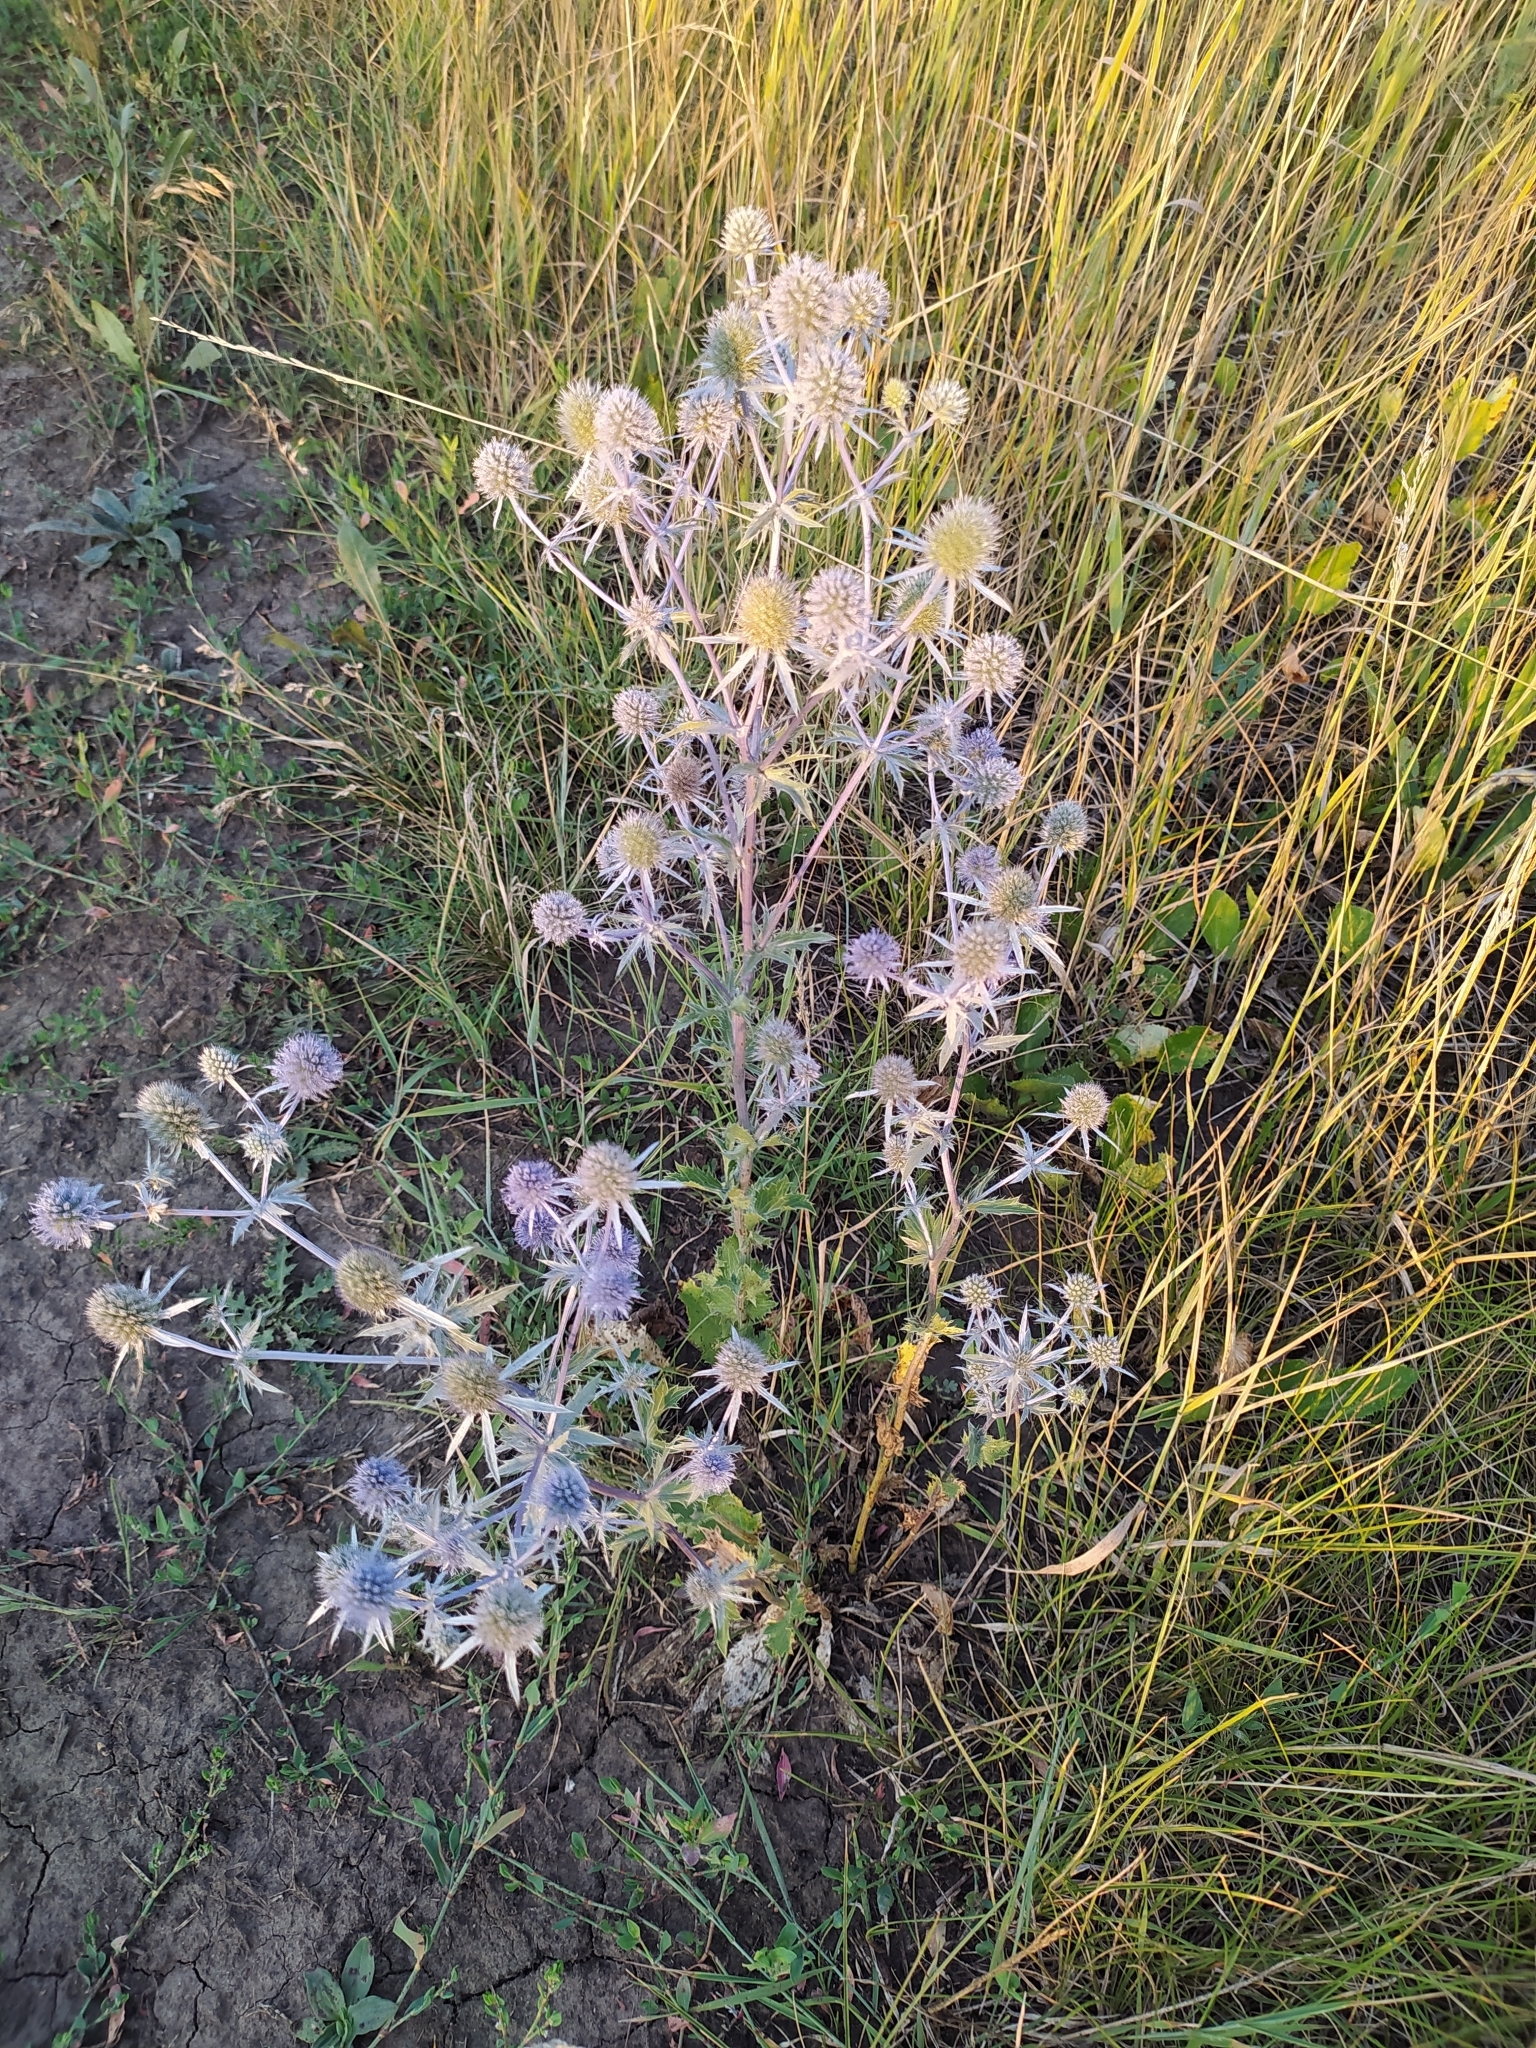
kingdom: Plantae
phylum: Tracheophyta
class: Magnoliopsida
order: Apiales
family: Apiaceae
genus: Eryngium
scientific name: Eryngium planum
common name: Blue eryngo
